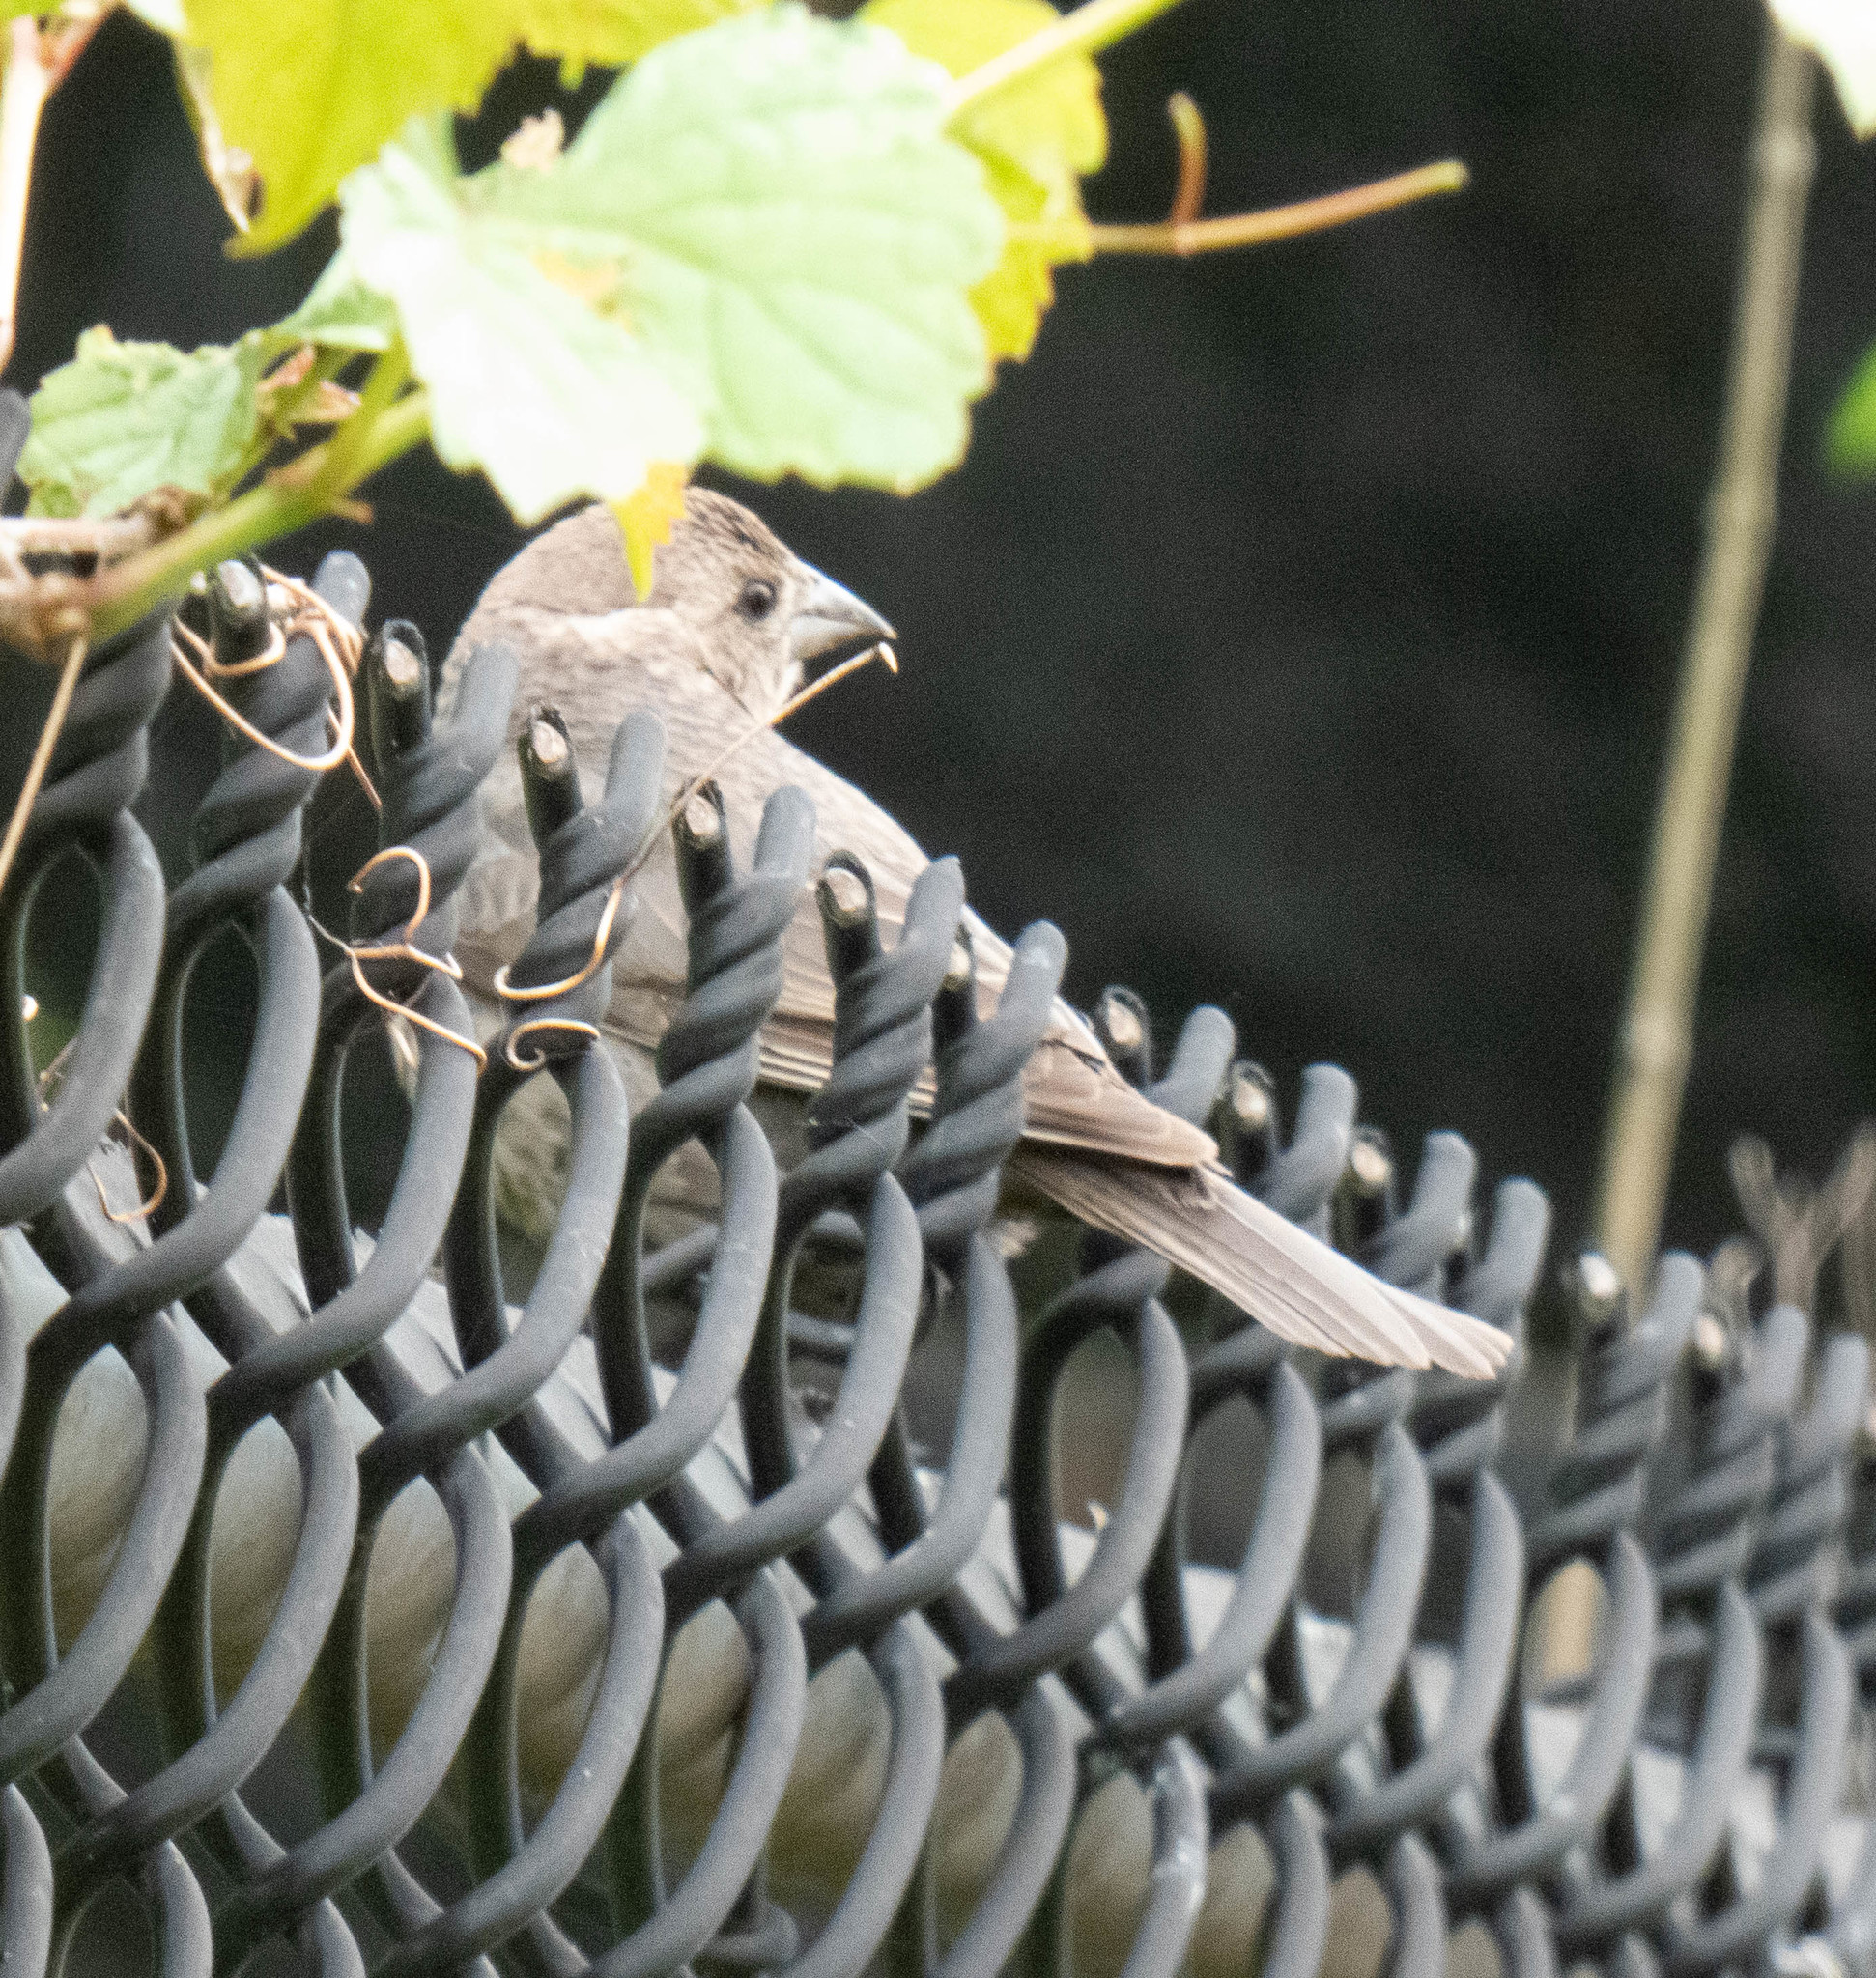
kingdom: Animalia
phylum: Chordata
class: Aves
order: Passeriformes
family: Icteridae
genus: Molothrus
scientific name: Molothrus ater
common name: Brown-headed cowbird
